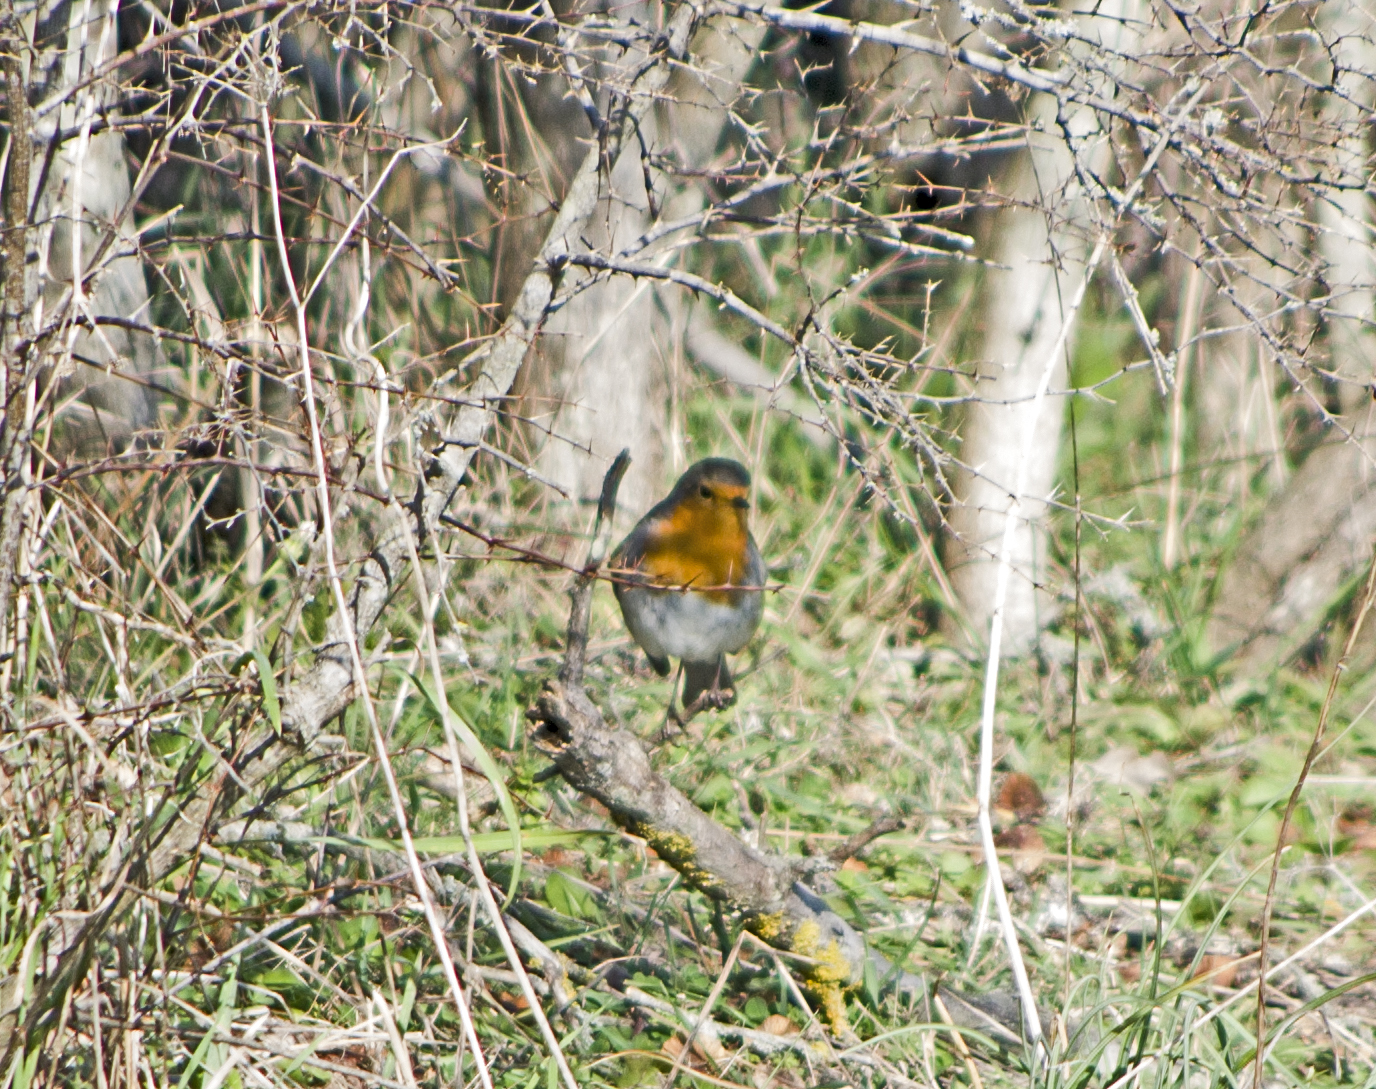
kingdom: Animalia
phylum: Chordata
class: Aves
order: Passeriformes
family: Muscicapidae
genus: Erithacus
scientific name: Erithacus rubecula
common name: European robin
